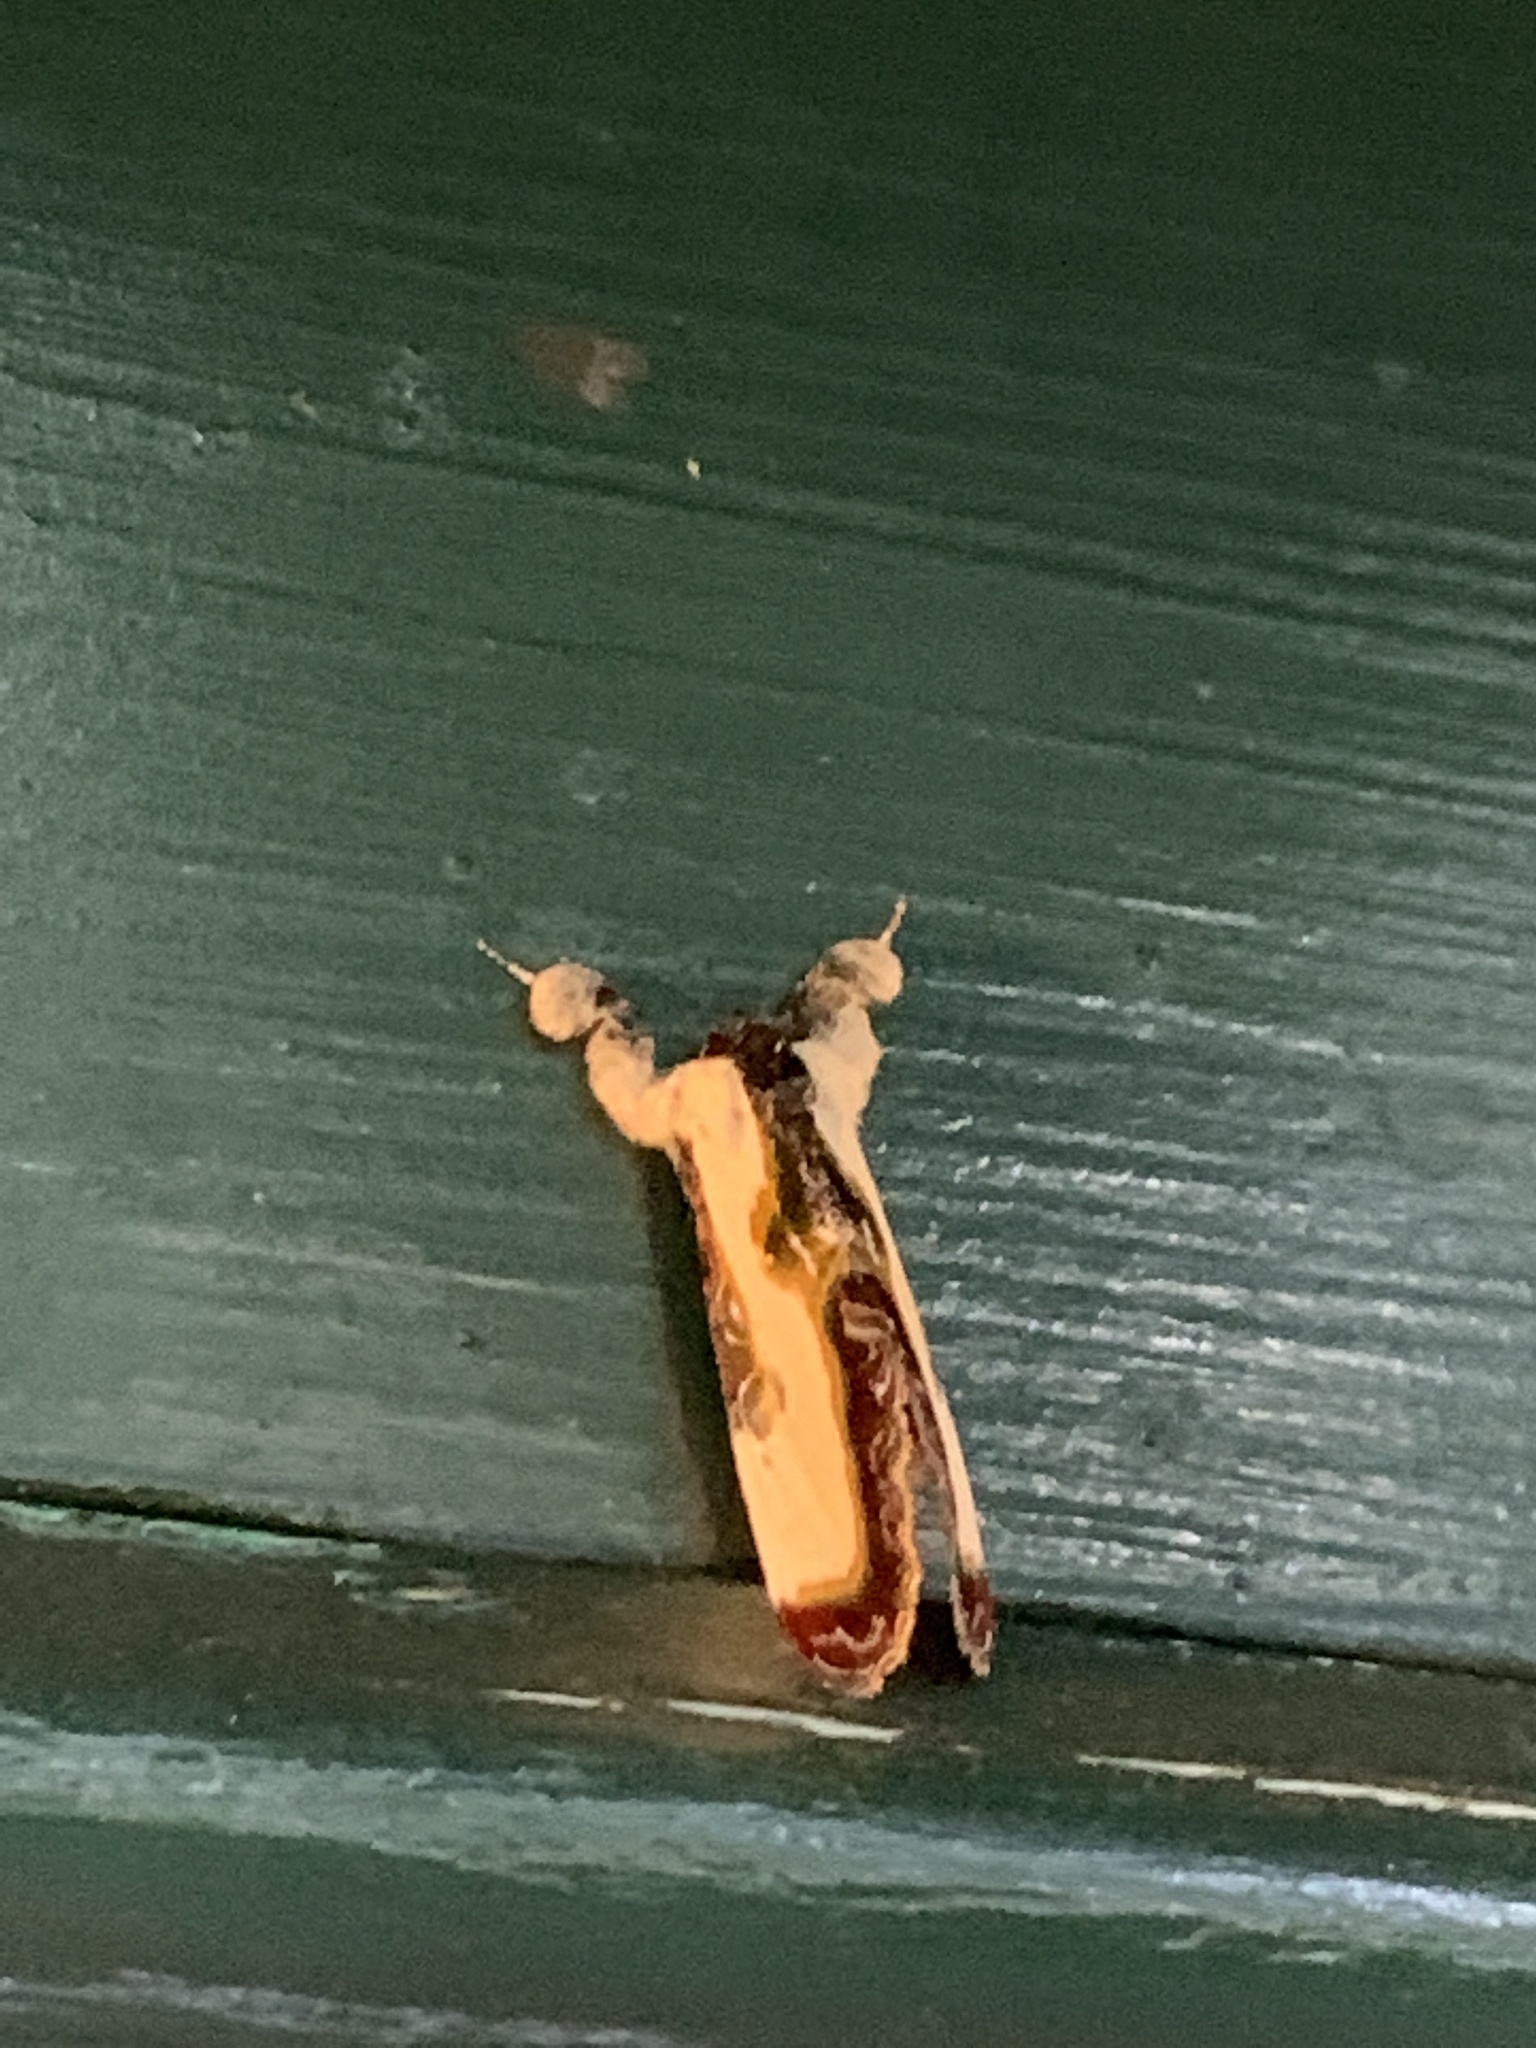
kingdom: Animalia
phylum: Arthropoda
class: Insecta
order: Lepidoptera
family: Noctuidae
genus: Eudryas
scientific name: Eudryas grata
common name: Beautiful wood-nymph
